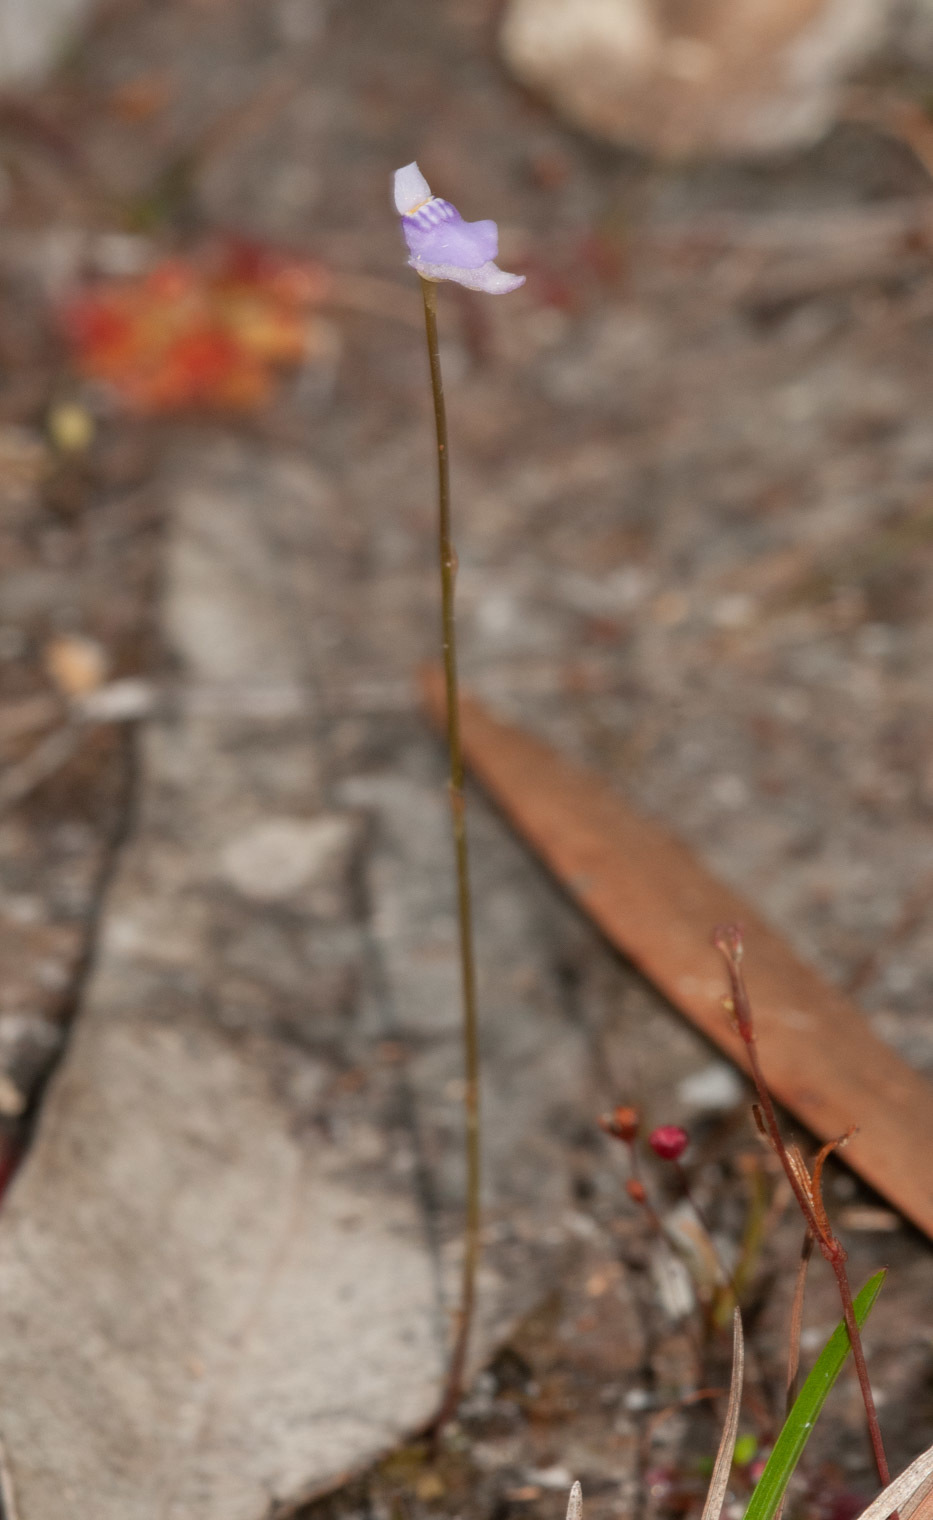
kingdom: Plantae
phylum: Tracheophyta
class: Magnoliopsida
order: Lamiales
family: Lentibulariaceae
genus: Utricularia
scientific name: Utricularia caerulea
